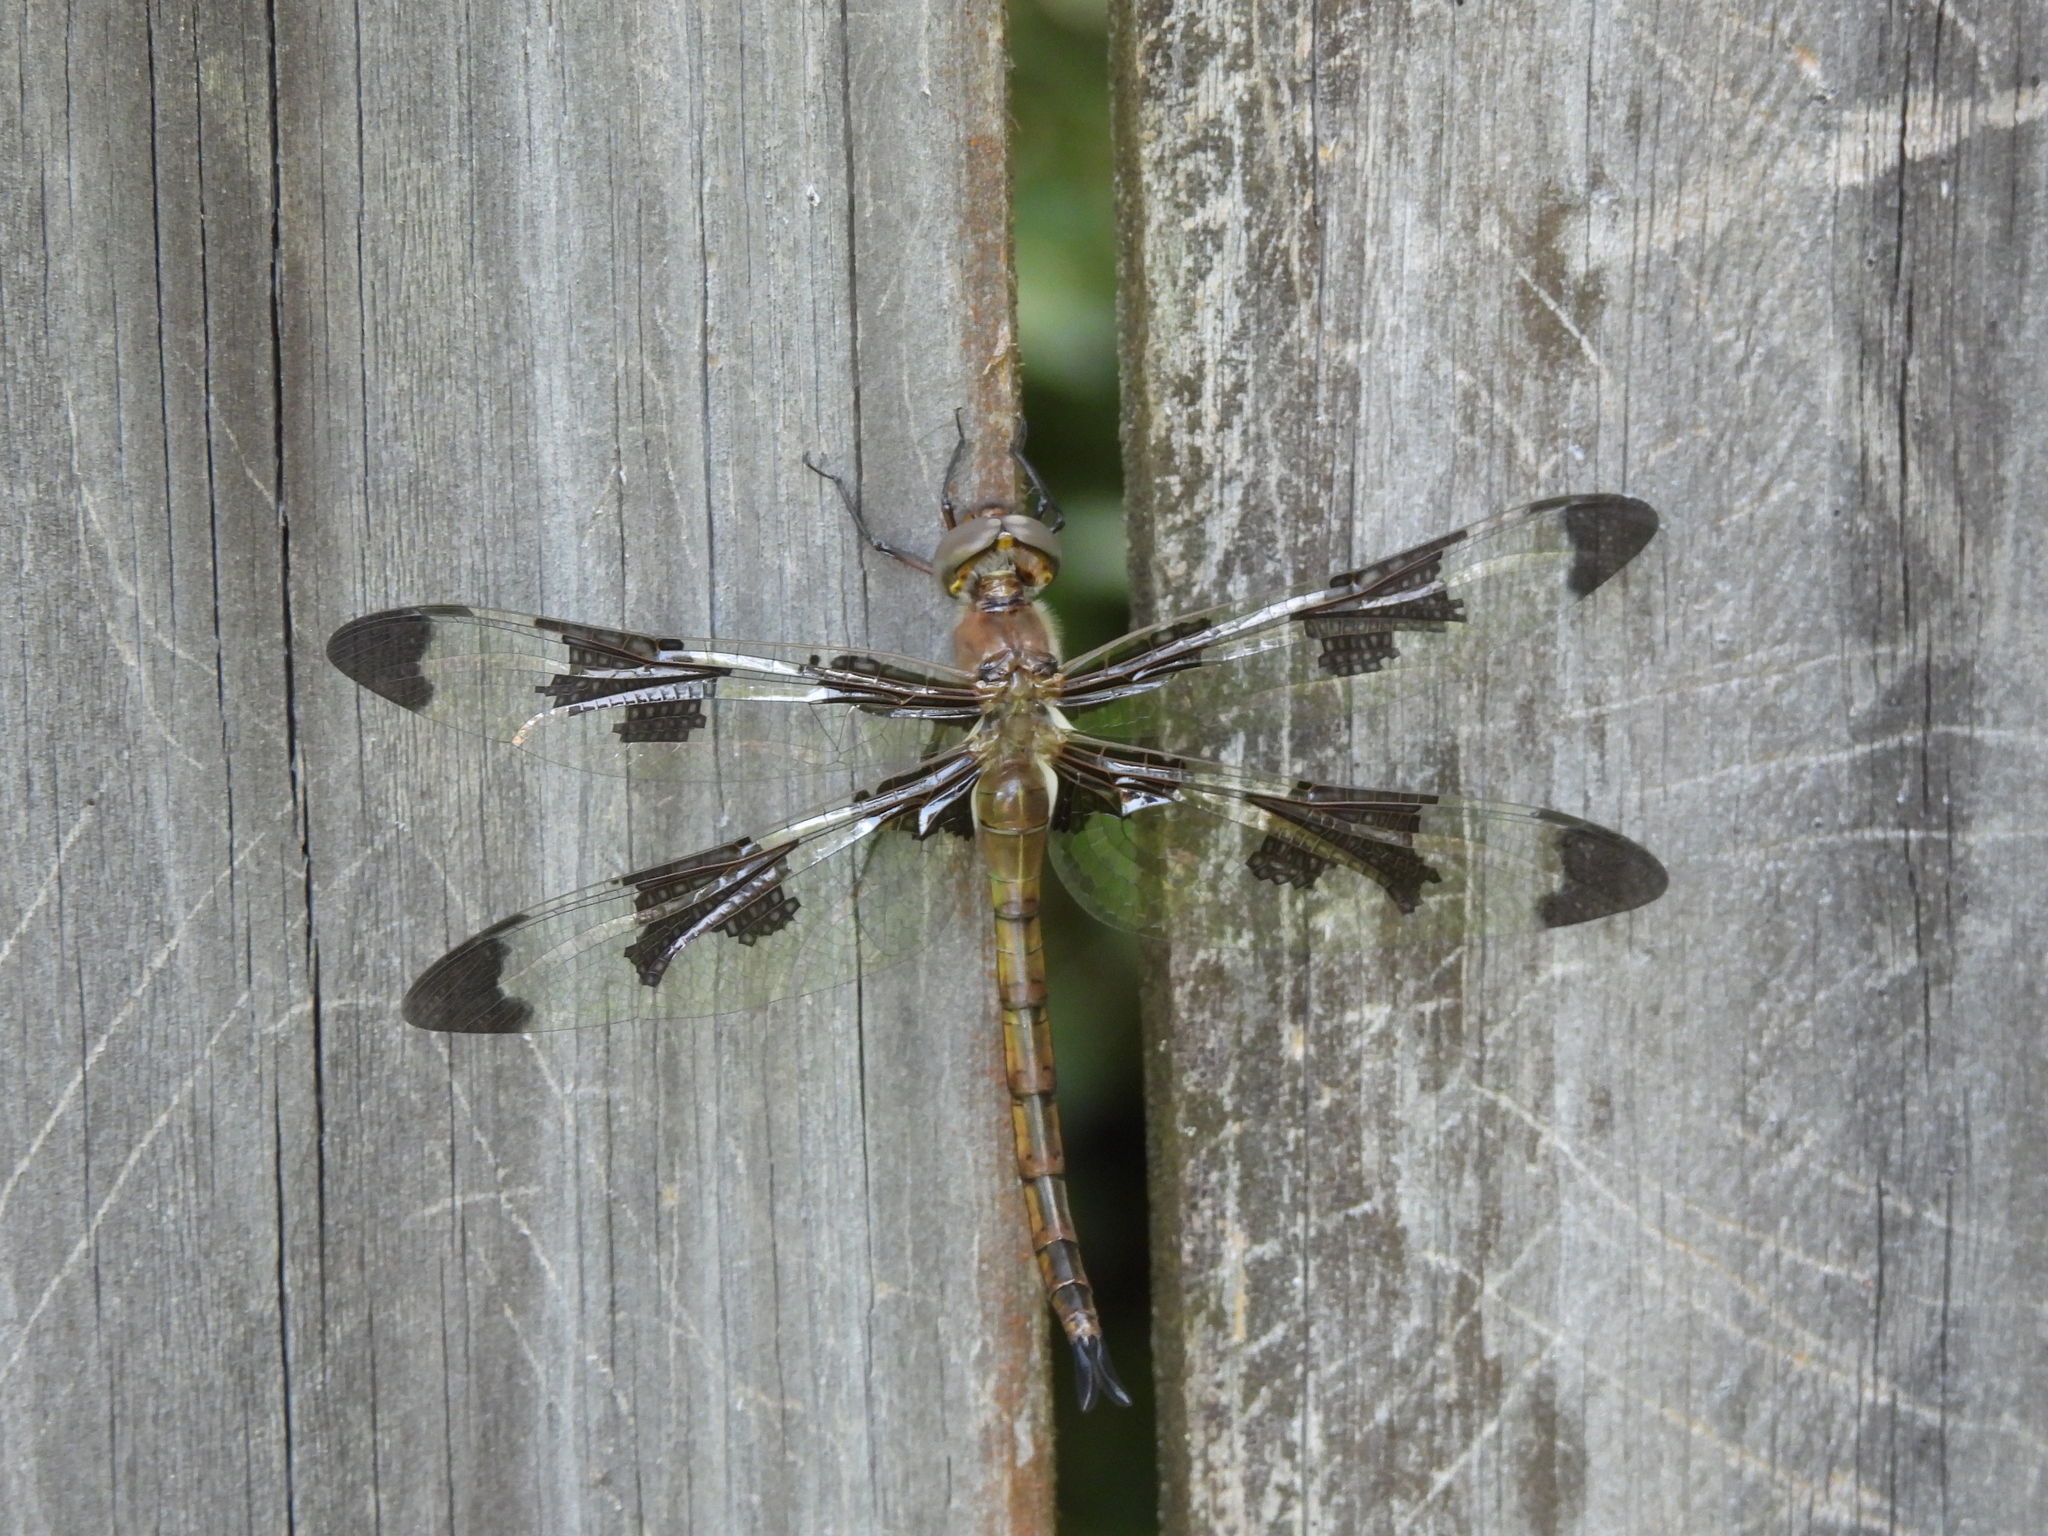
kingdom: Animalia
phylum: Arthropoda
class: Insecta
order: Odonata
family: Corduliidae
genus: Epitheca
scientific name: Epitheca princeps
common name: Prince baskettail
